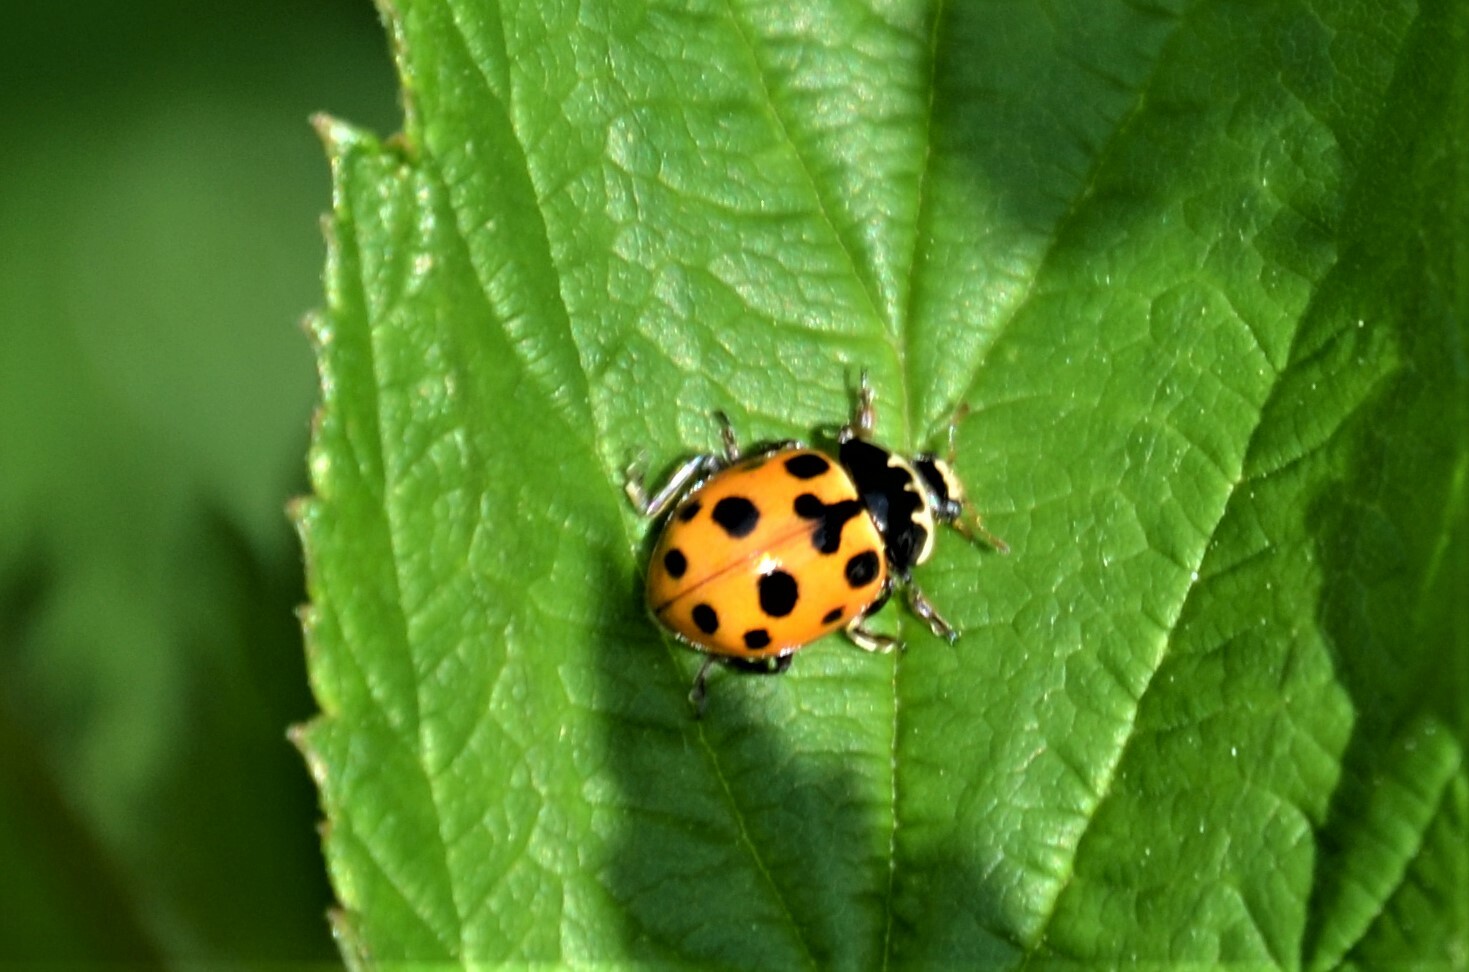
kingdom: Animalia
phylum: Arthropoda
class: Insecta
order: Coleoptera
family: Coccinellidae
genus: Ceratomegilla
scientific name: Ceratomegilla notata
